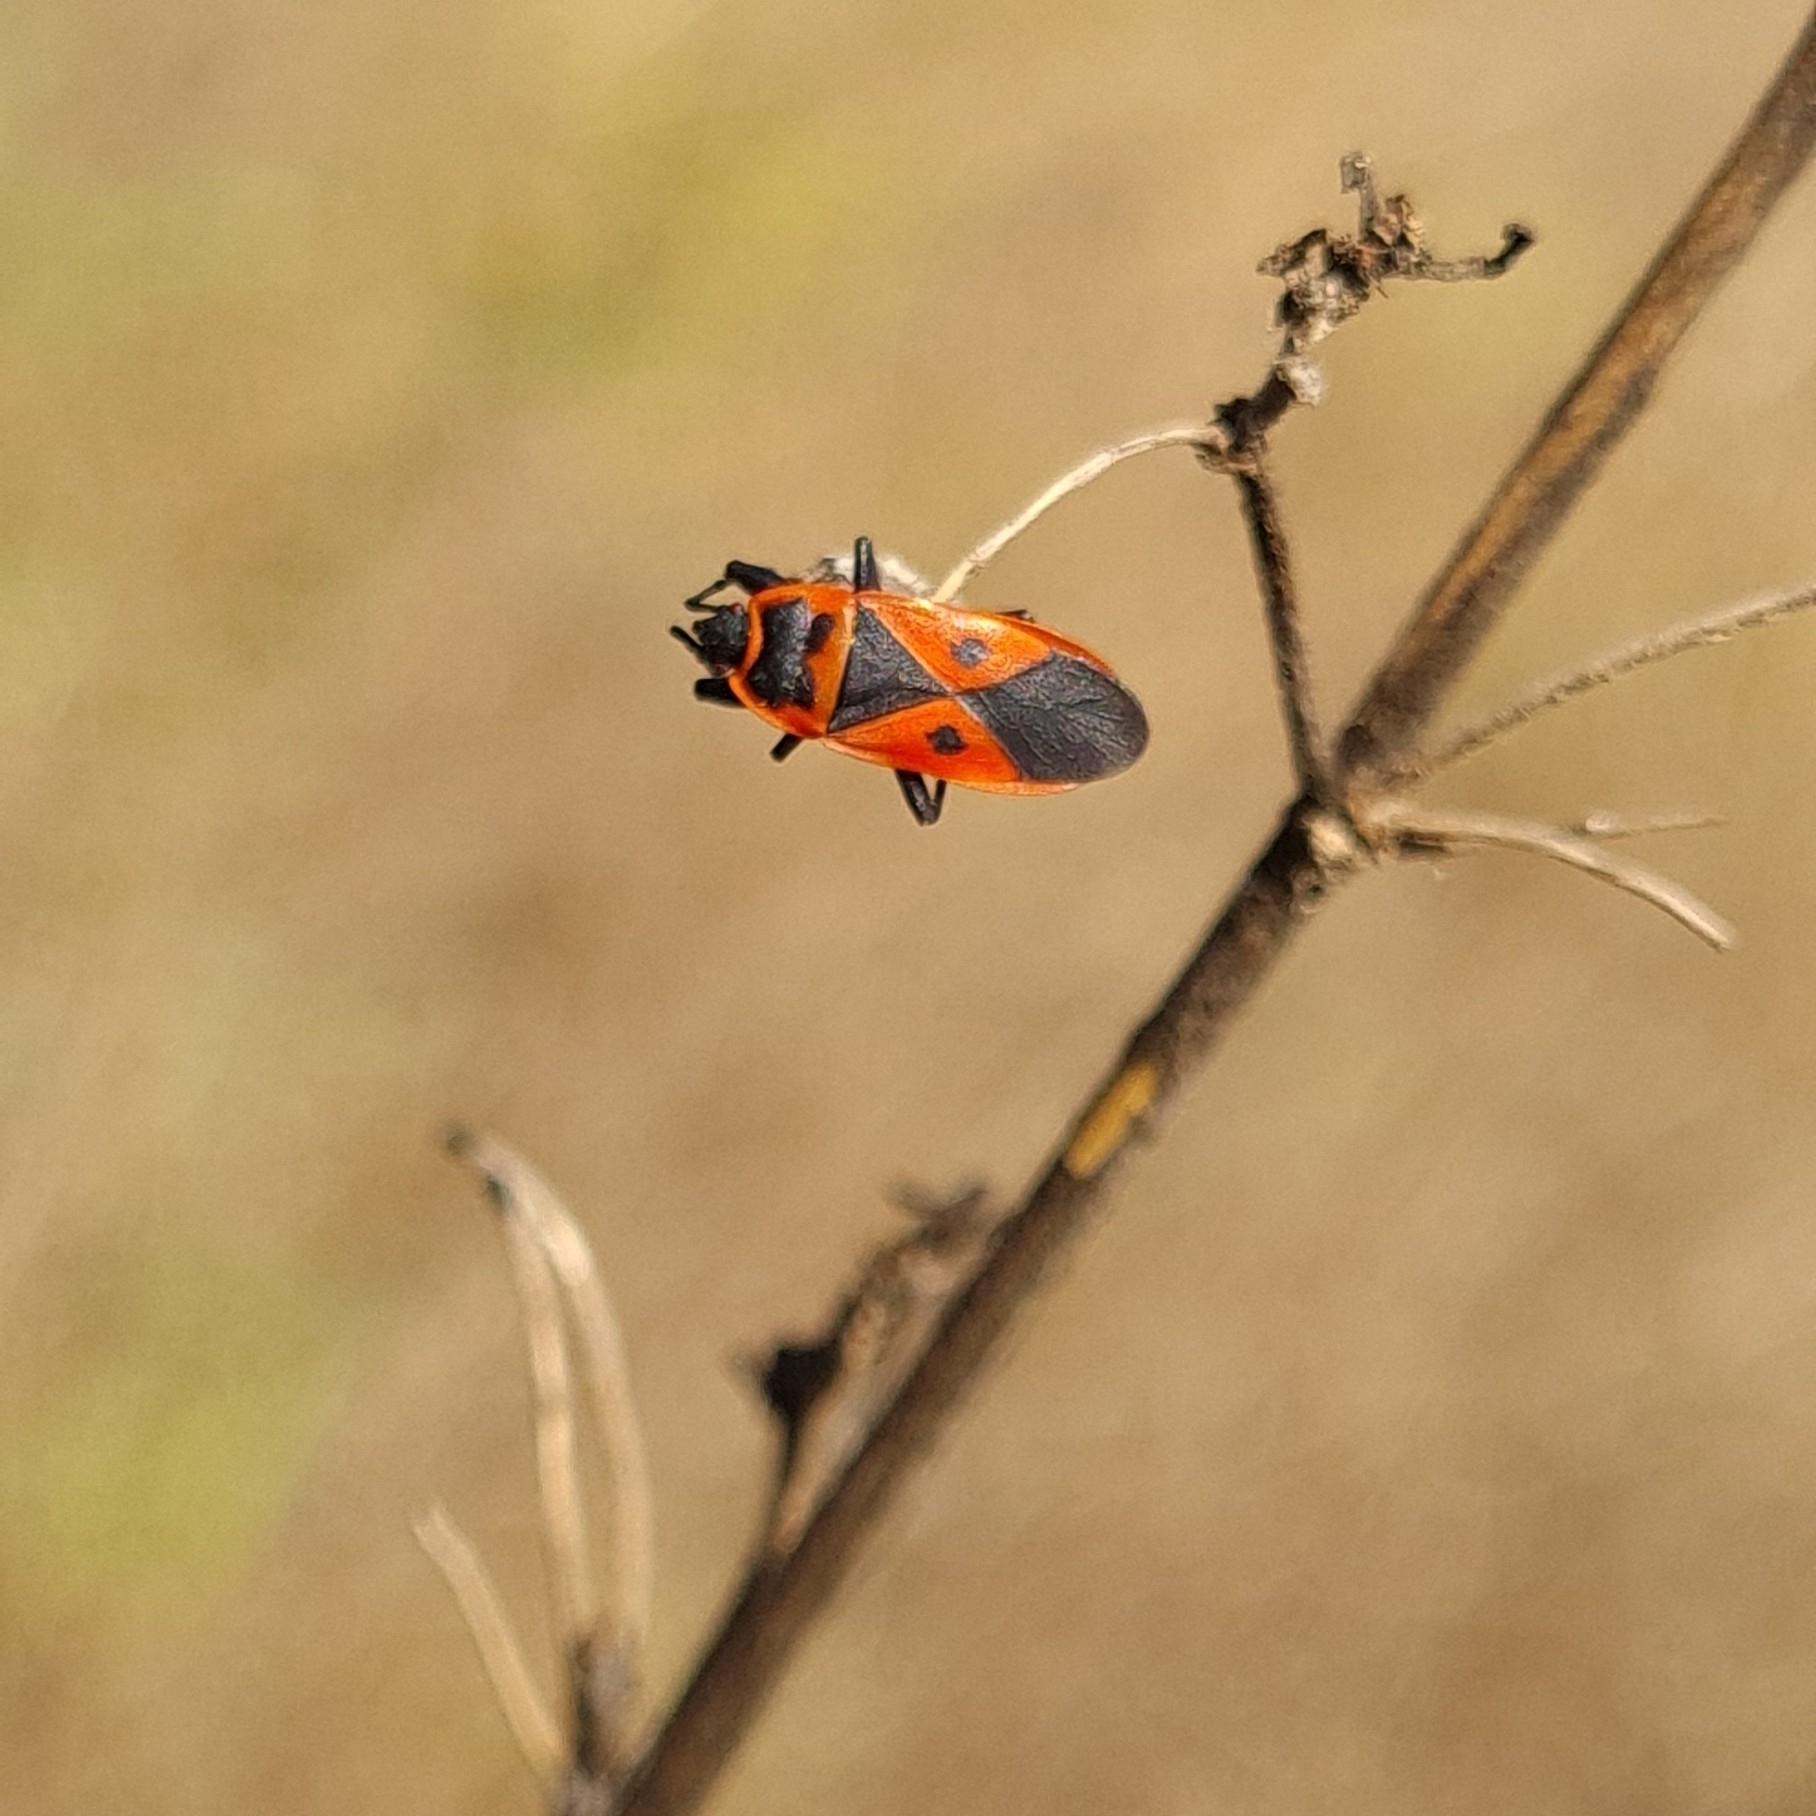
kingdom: Animalia
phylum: Arthropoda
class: Insecta
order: Hemiptera
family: Pyrrhocoridae
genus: Scantius
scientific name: Scantius aegyptius
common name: Red bug
